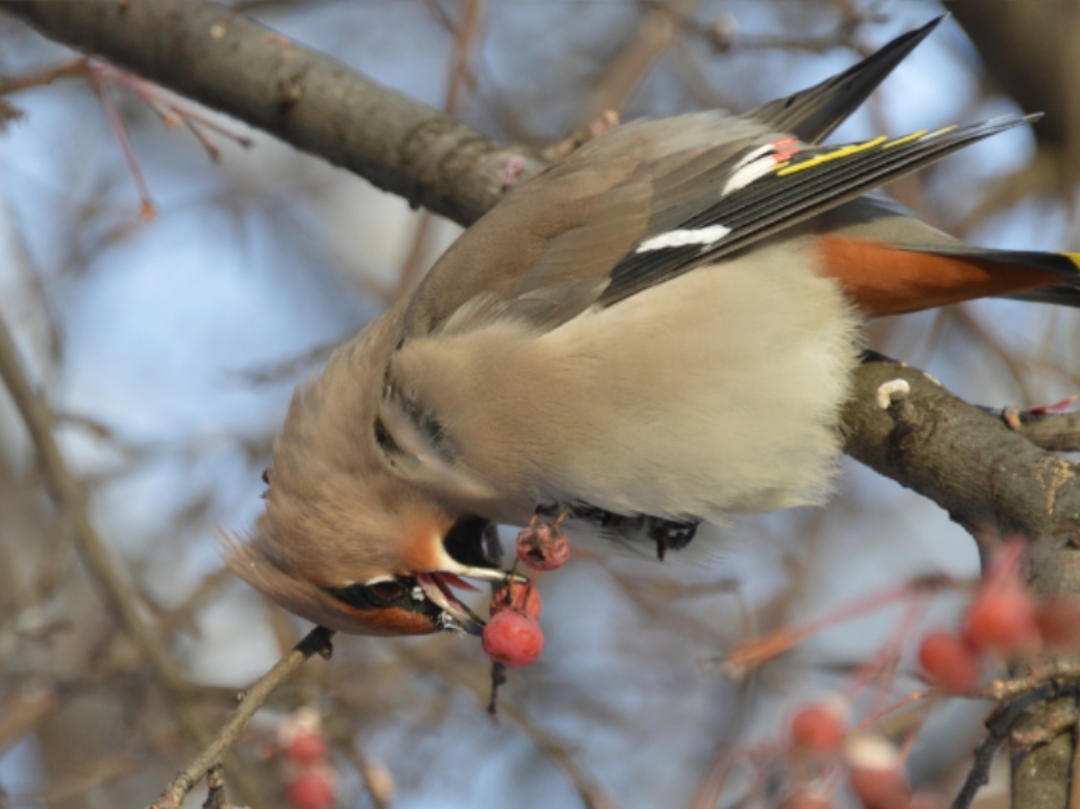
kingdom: Animalia
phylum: Chordata
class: Aves
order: Passeriformes
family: Bombycillidae
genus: Bombycilla
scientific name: Bombycilla garrulus
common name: Bohemian waxwing
